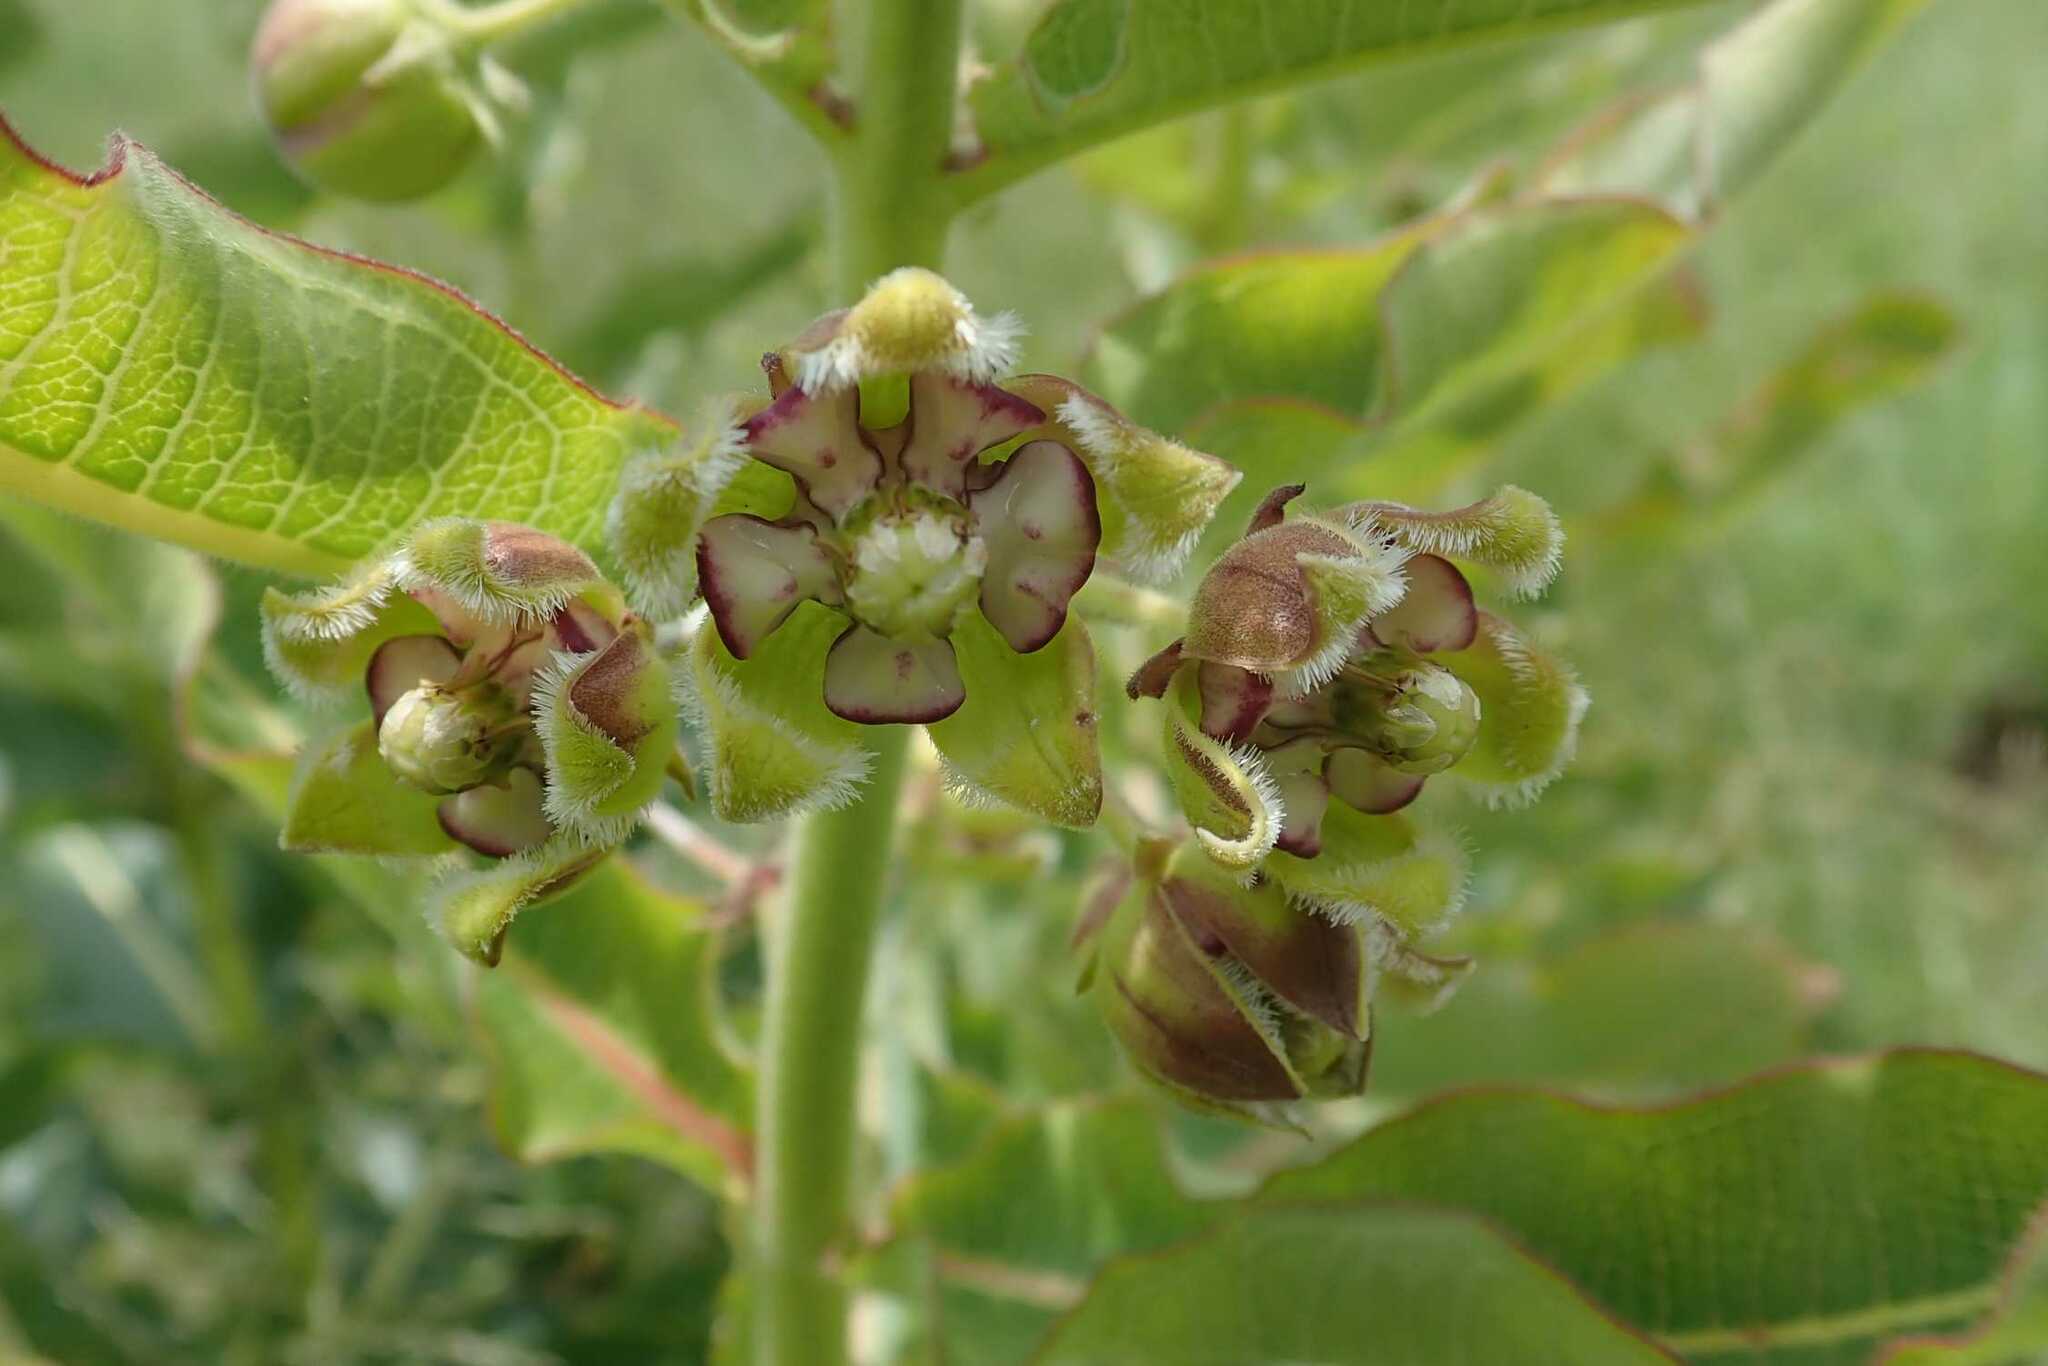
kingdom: Plantae
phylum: Tracheophyta
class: Magnoliopsida
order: Gentianales
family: Apocynaceae
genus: Xysmalobium
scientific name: Xysmalobium undulatum
